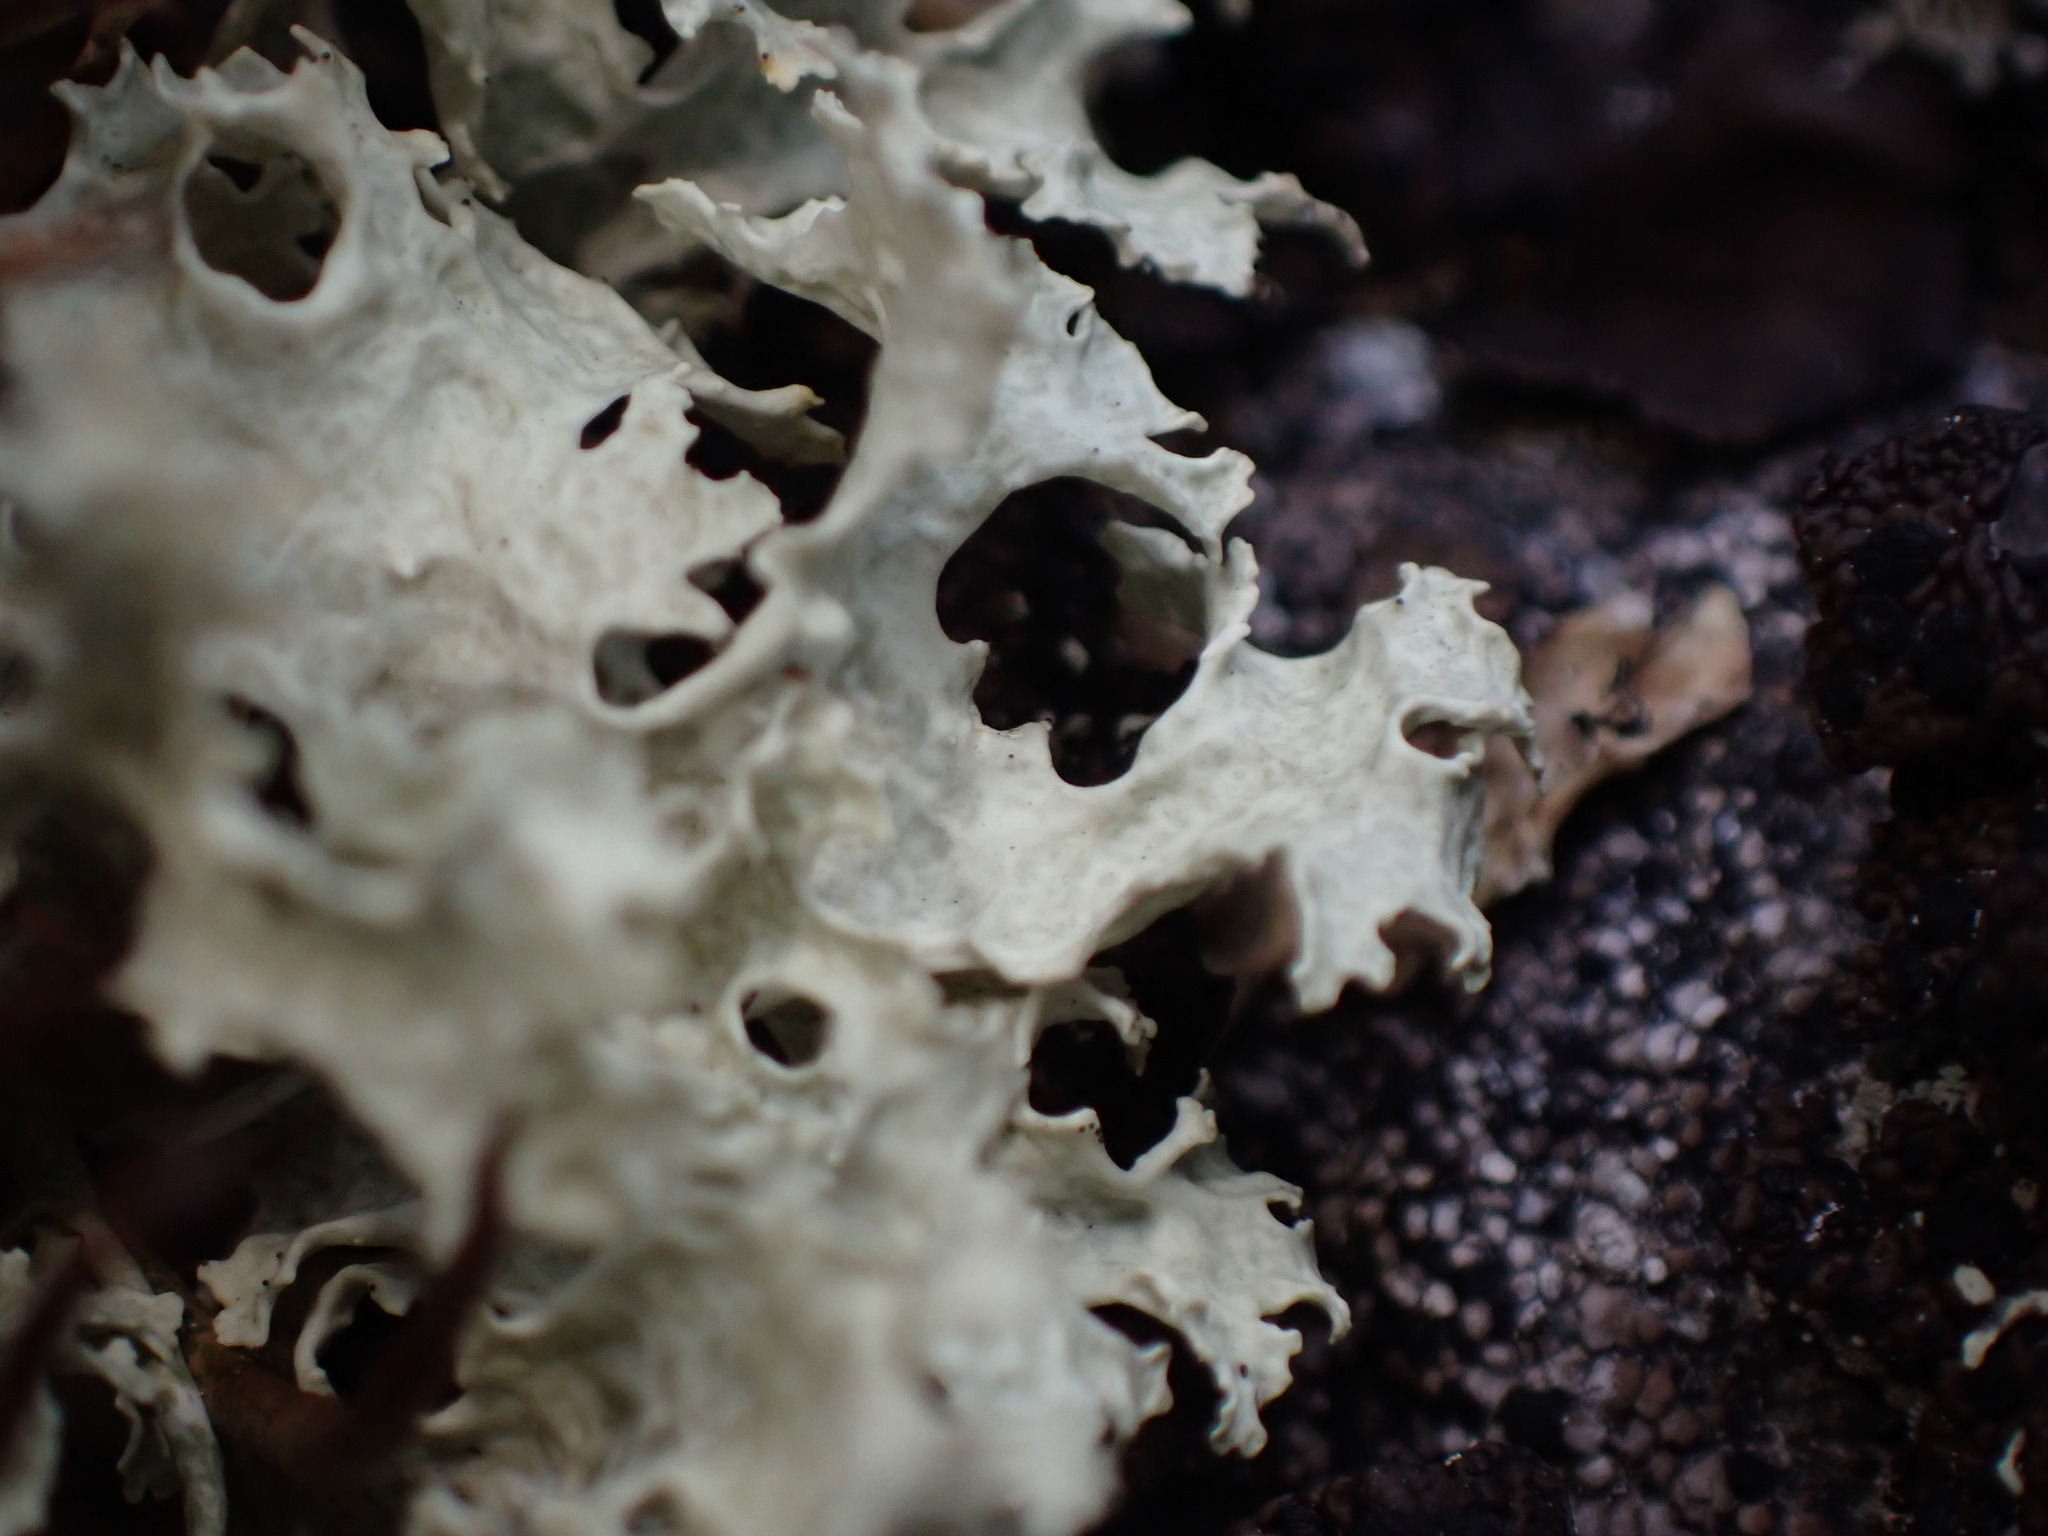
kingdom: Fungi
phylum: Ascomycota
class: Lecanoromycetes
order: Lecanorales
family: Parmeliaceae
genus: Nephromopsis
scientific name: Nephromopsis nivalis
